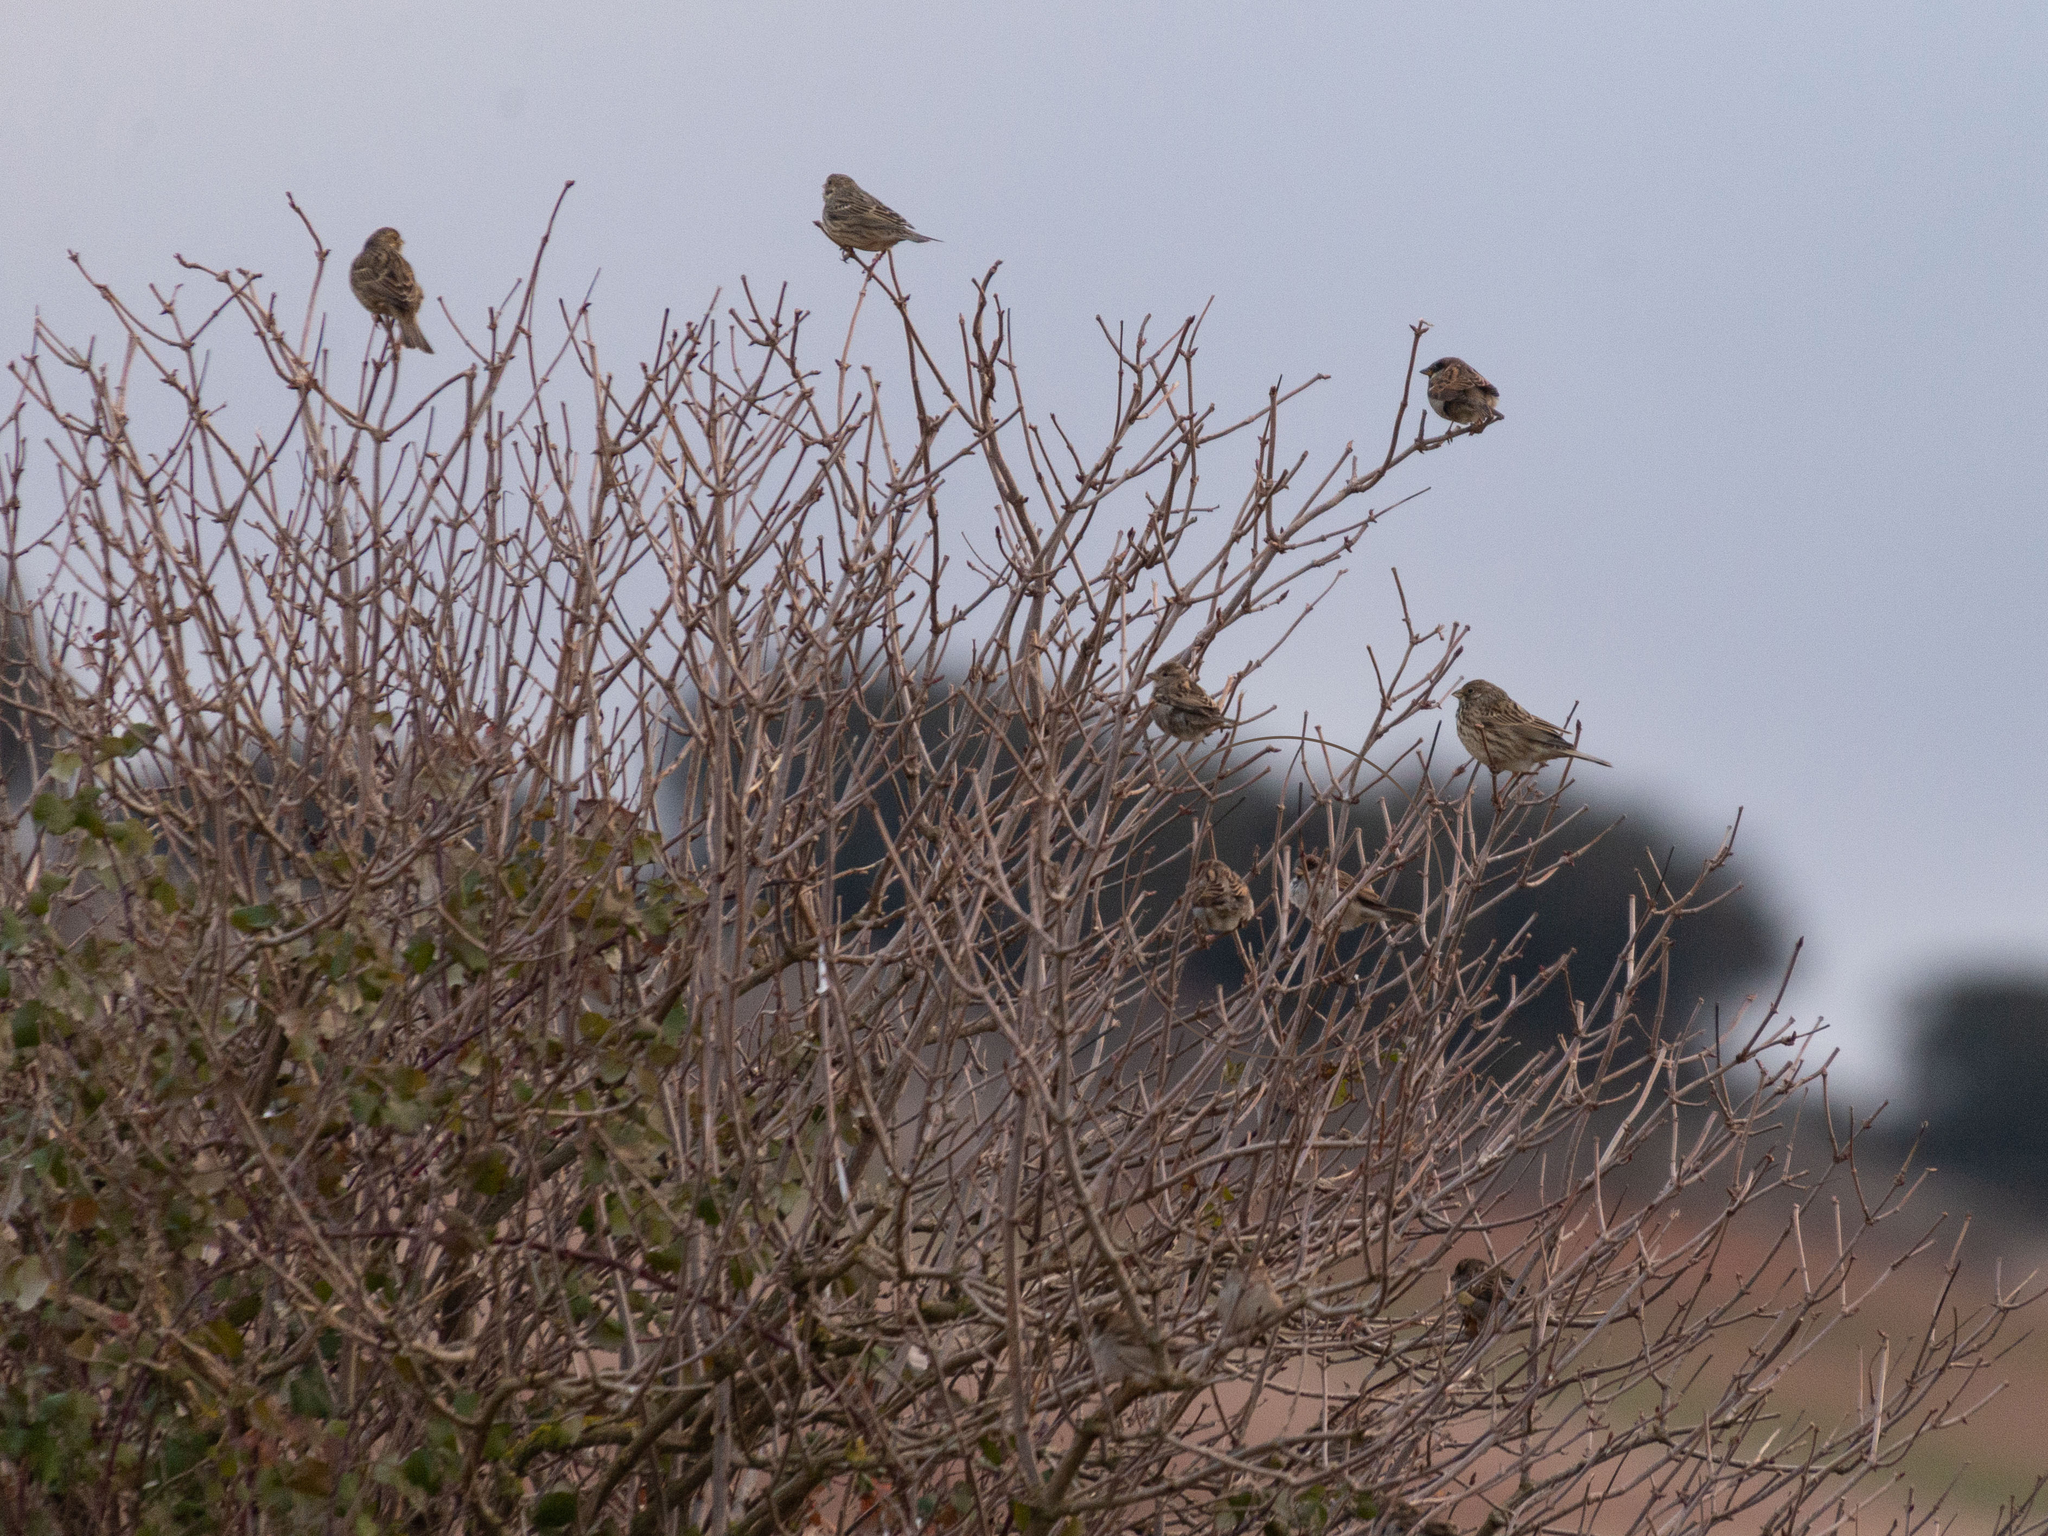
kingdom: Animalia
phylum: Chordata
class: Aves
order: Passeriformes
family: Passeridae
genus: Passer
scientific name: Passer domesticus
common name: House sparrow
